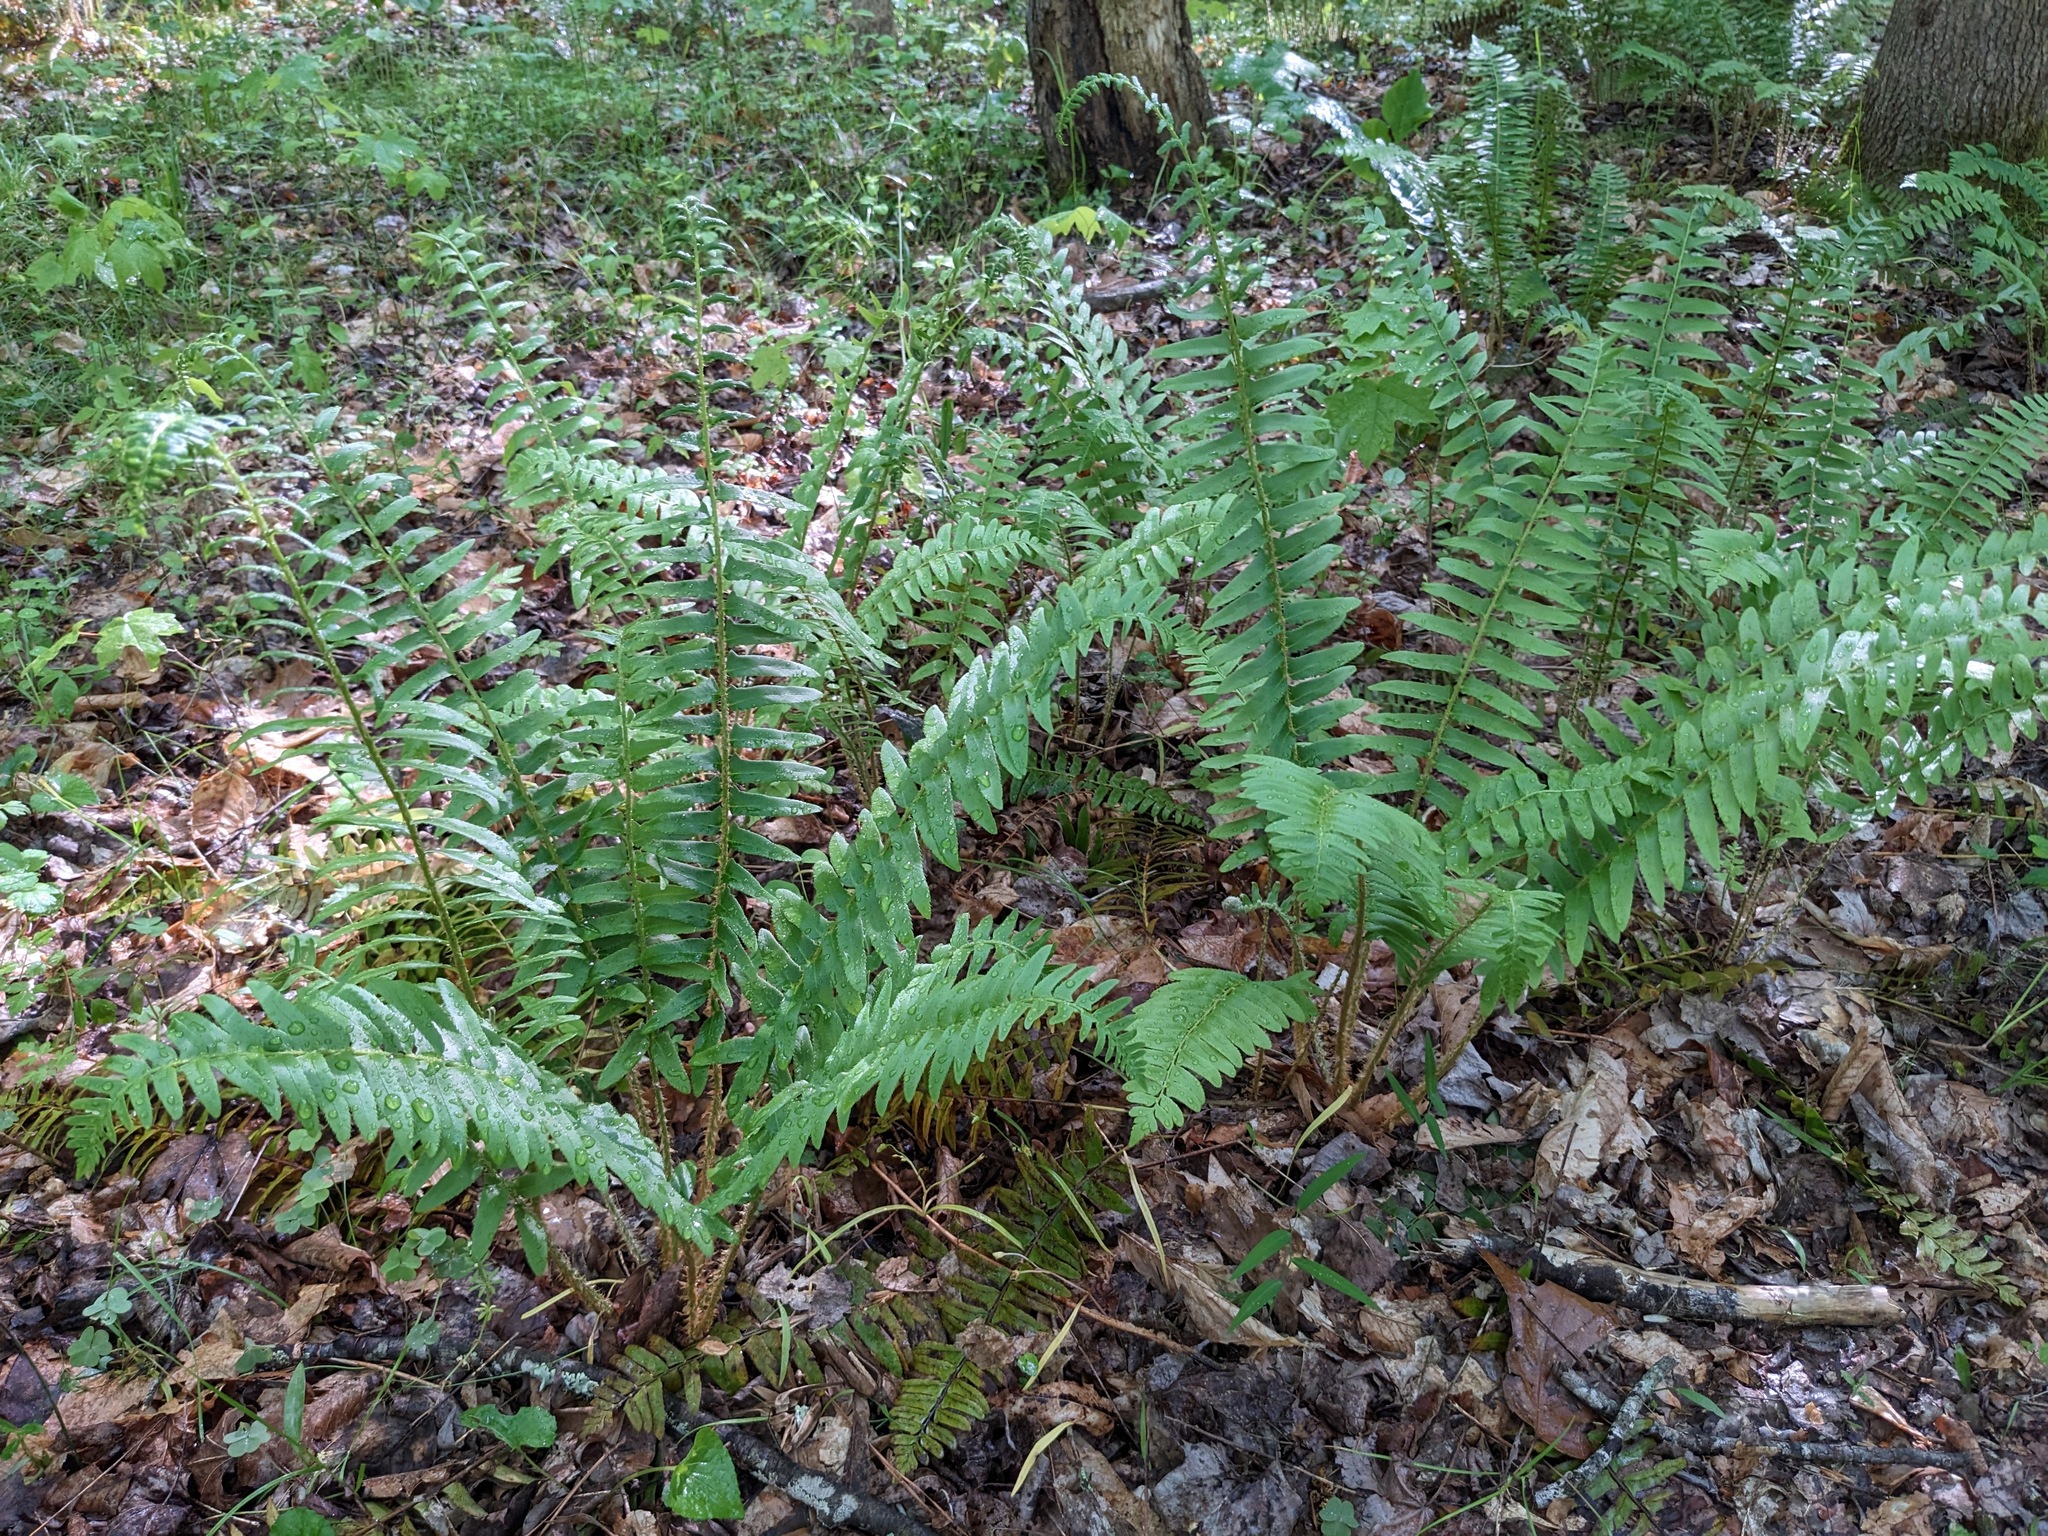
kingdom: Plantae
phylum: Tracheophyta
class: Polypodiopsida
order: Polypodiales
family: Dryopteridaceae
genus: Polystichum
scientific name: Polystichum acrostichoides
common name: Christmas fern
